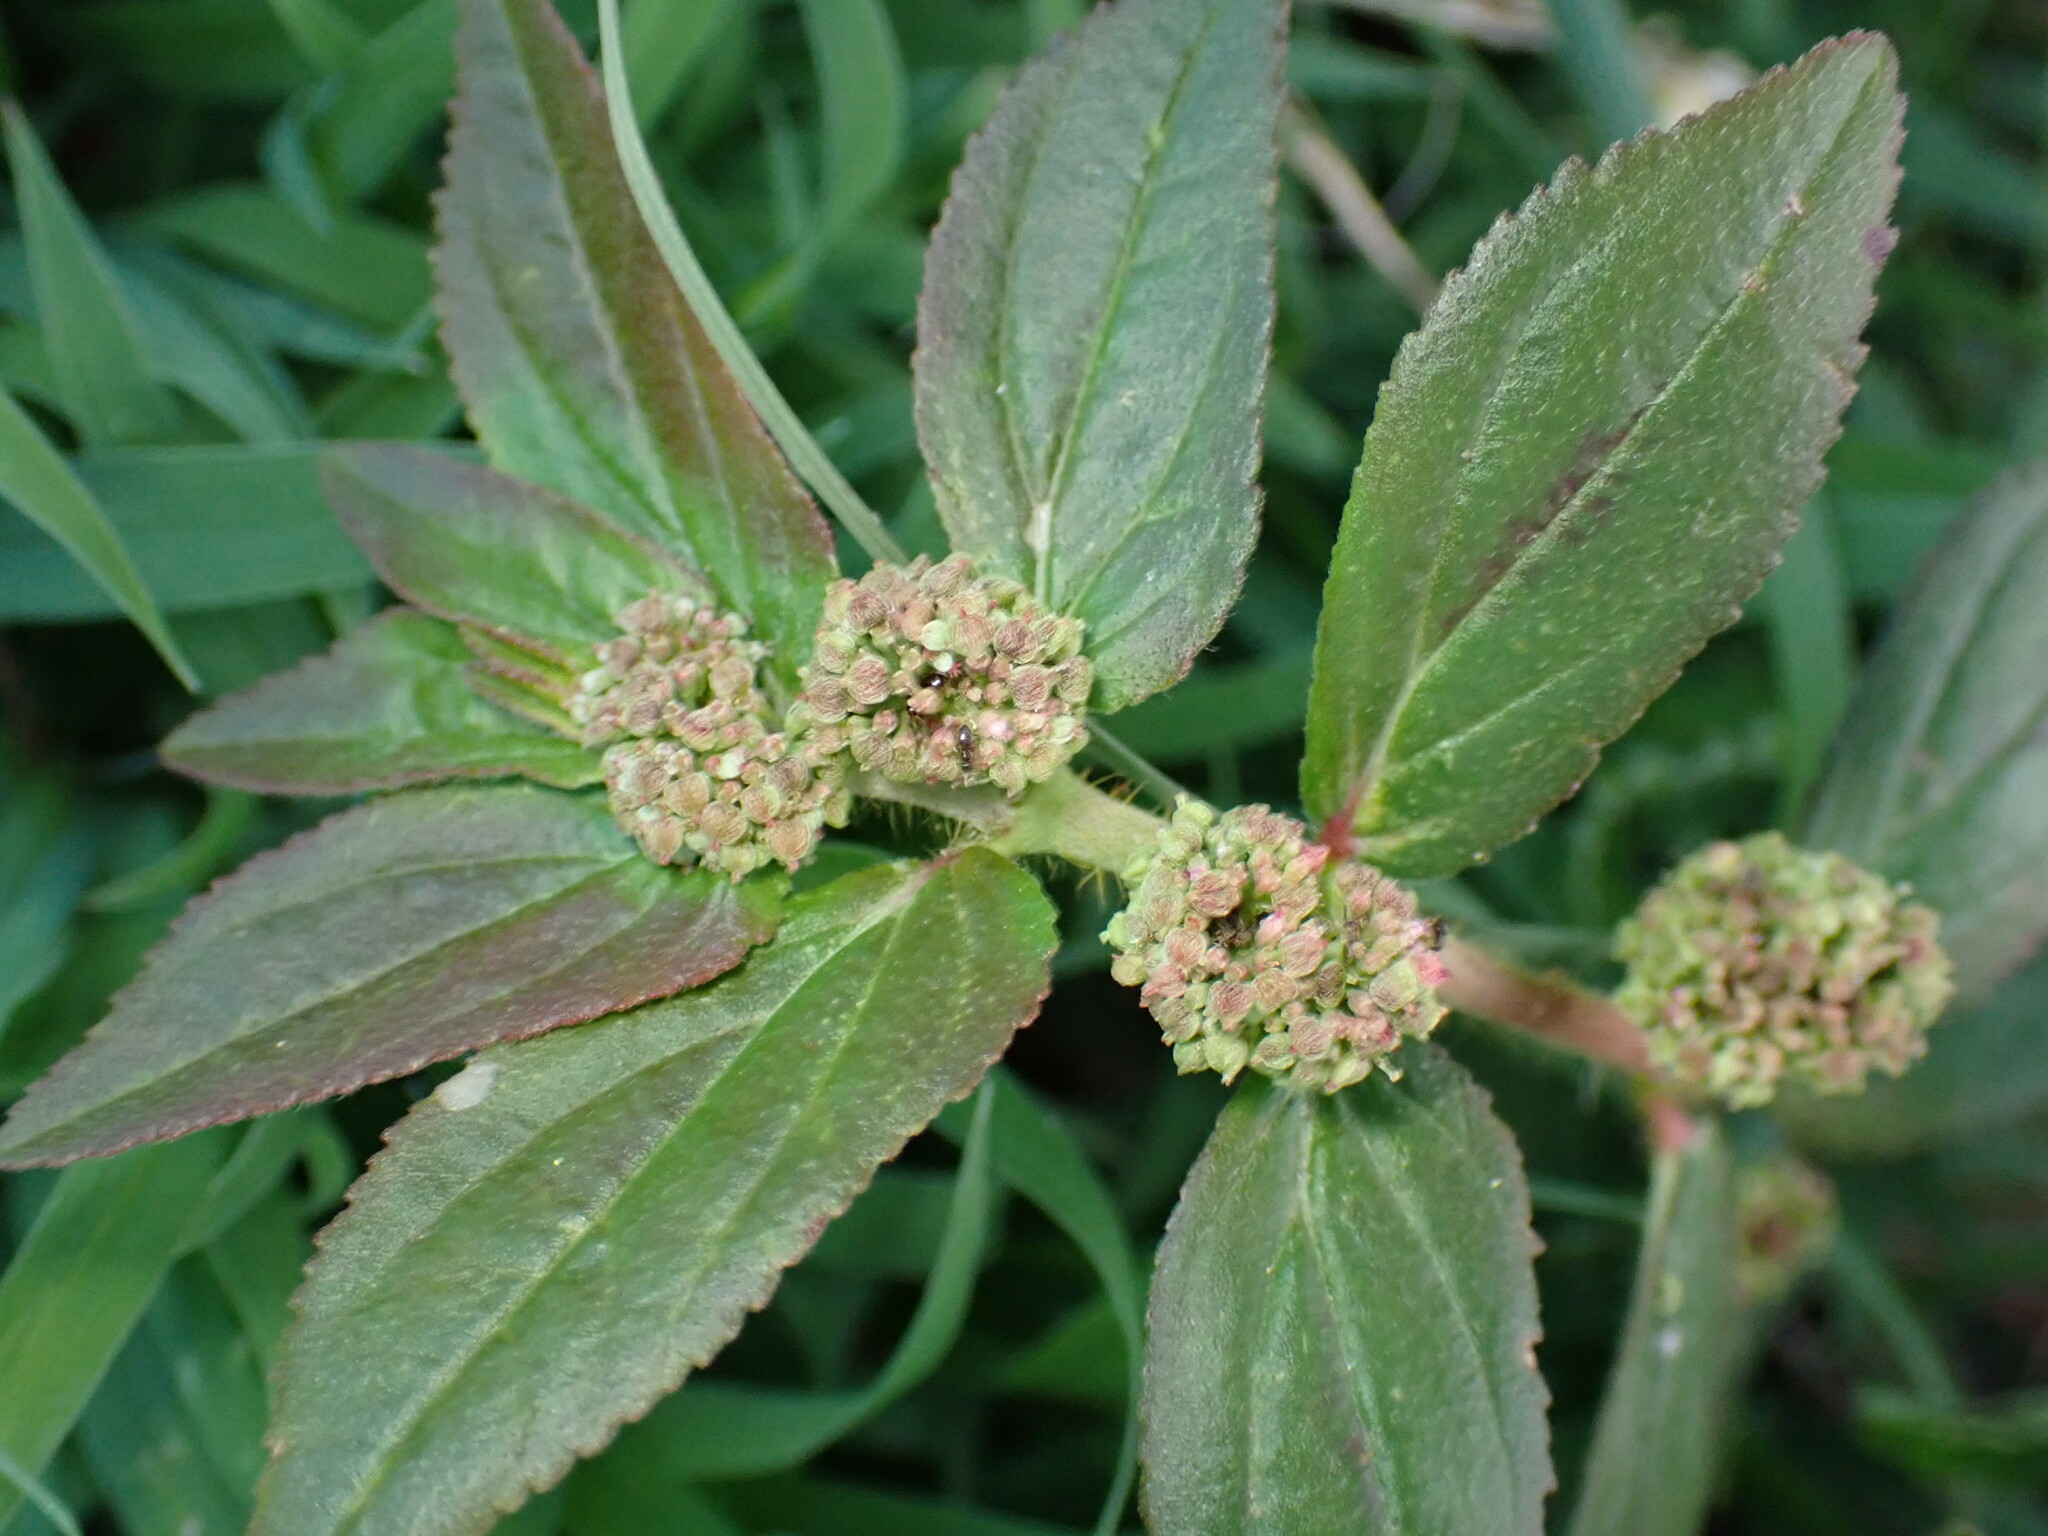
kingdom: Plantae
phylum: Tracheophyta
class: Magnoliopsida
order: Malpighiales
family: Euphorbiaceae
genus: Euphorbia
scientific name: Euphorbia hirta
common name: Pillpod sandmat
